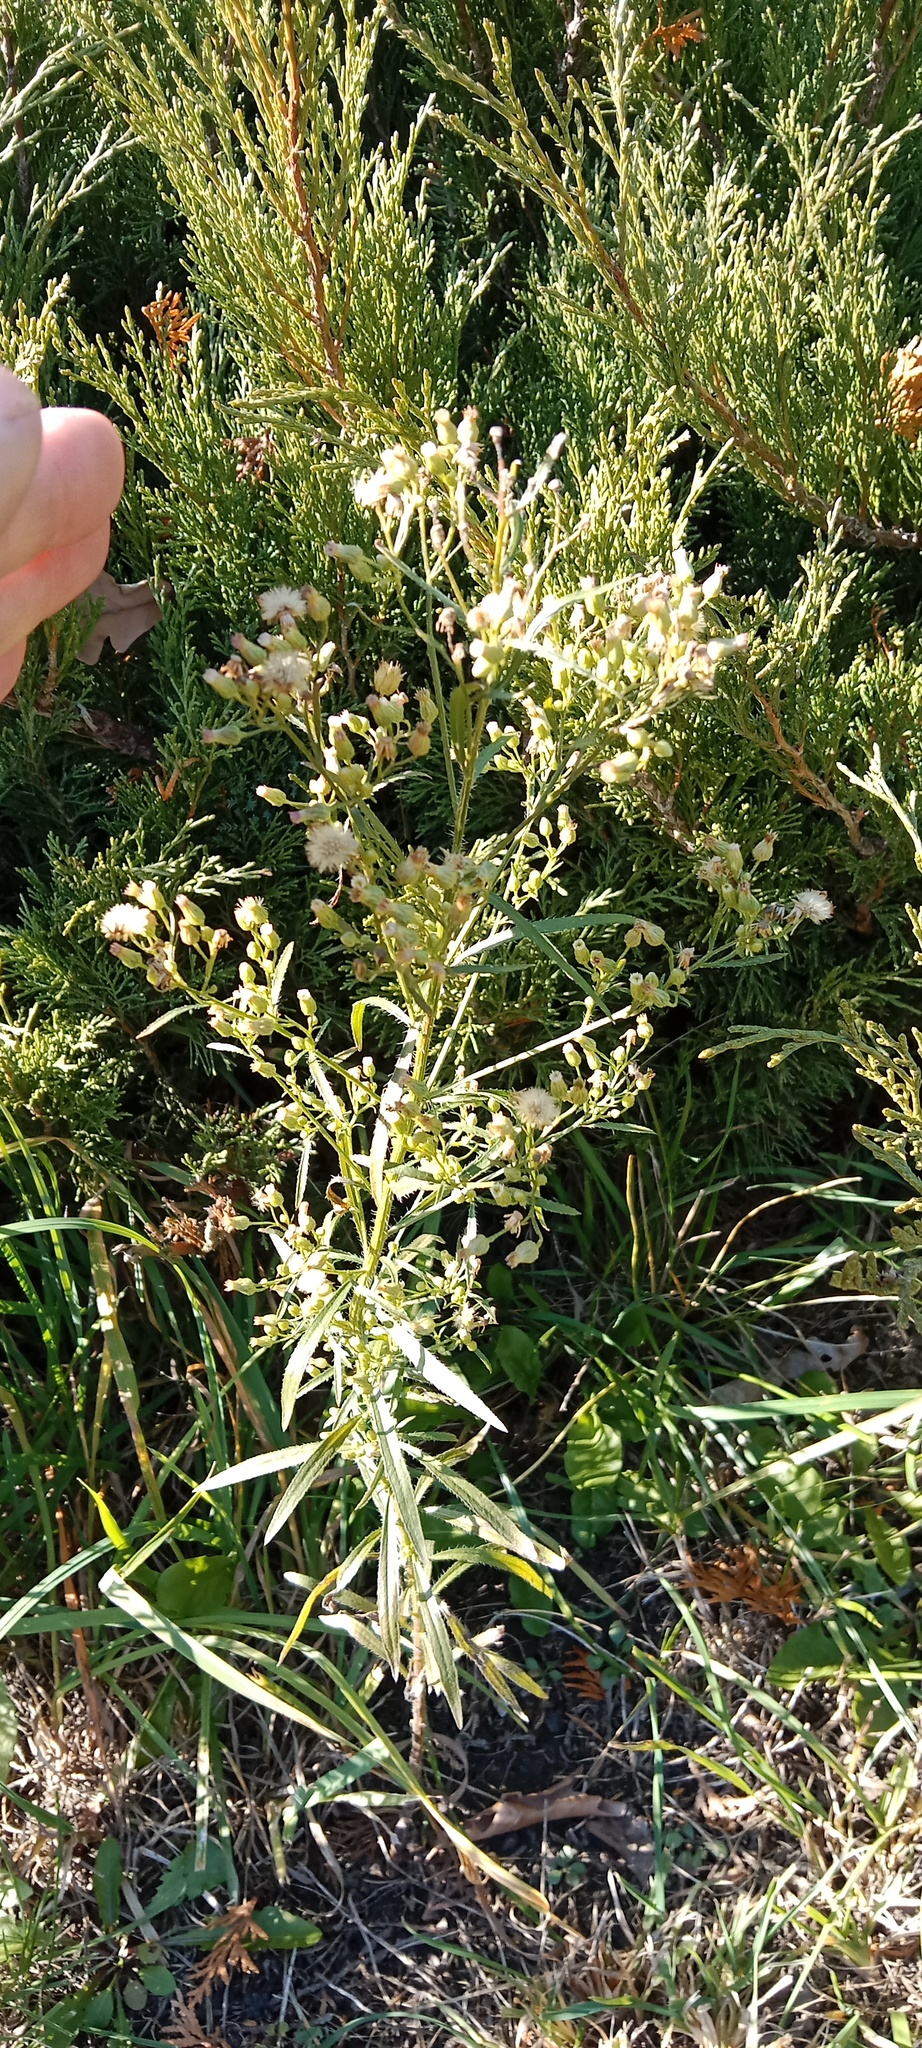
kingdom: Plantae
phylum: Tracheophyta
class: Magnoliopsida
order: Asterales
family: Asteraceae
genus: Erigeron
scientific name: Erigeron canadensis
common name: Canadian fleabane
